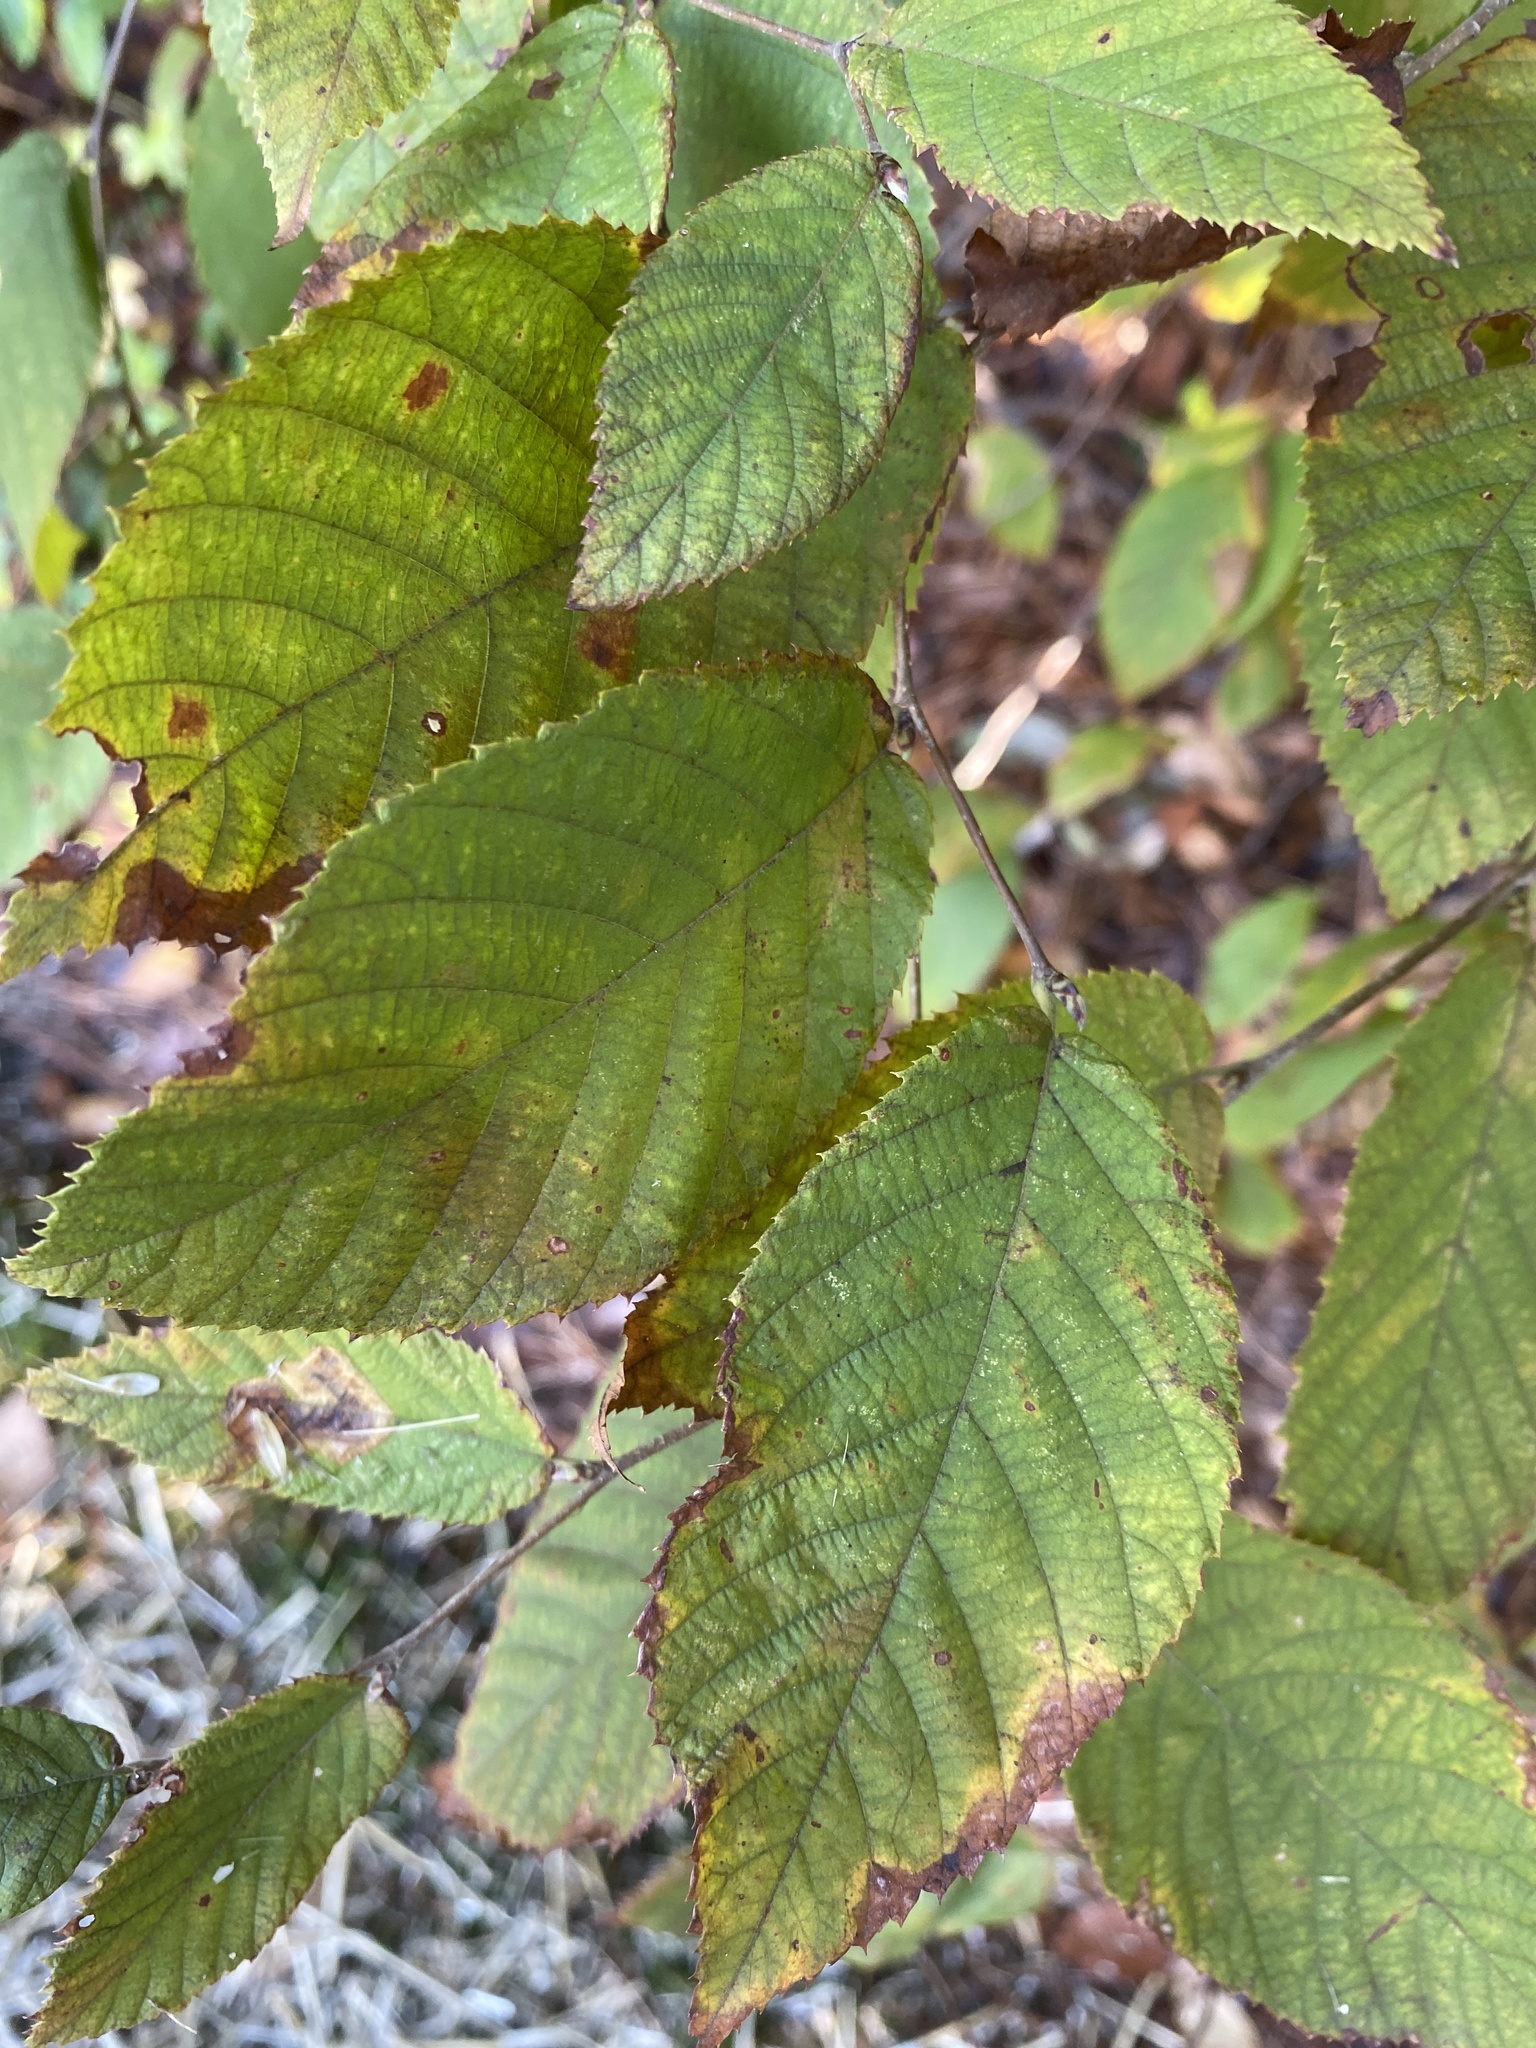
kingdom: Plantae
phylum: Tracheophyta
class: Magnoliopsida
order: Fagales
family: Betulaceae
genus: Ostrya
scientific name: Ostrya virginiana
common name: Ironwood
